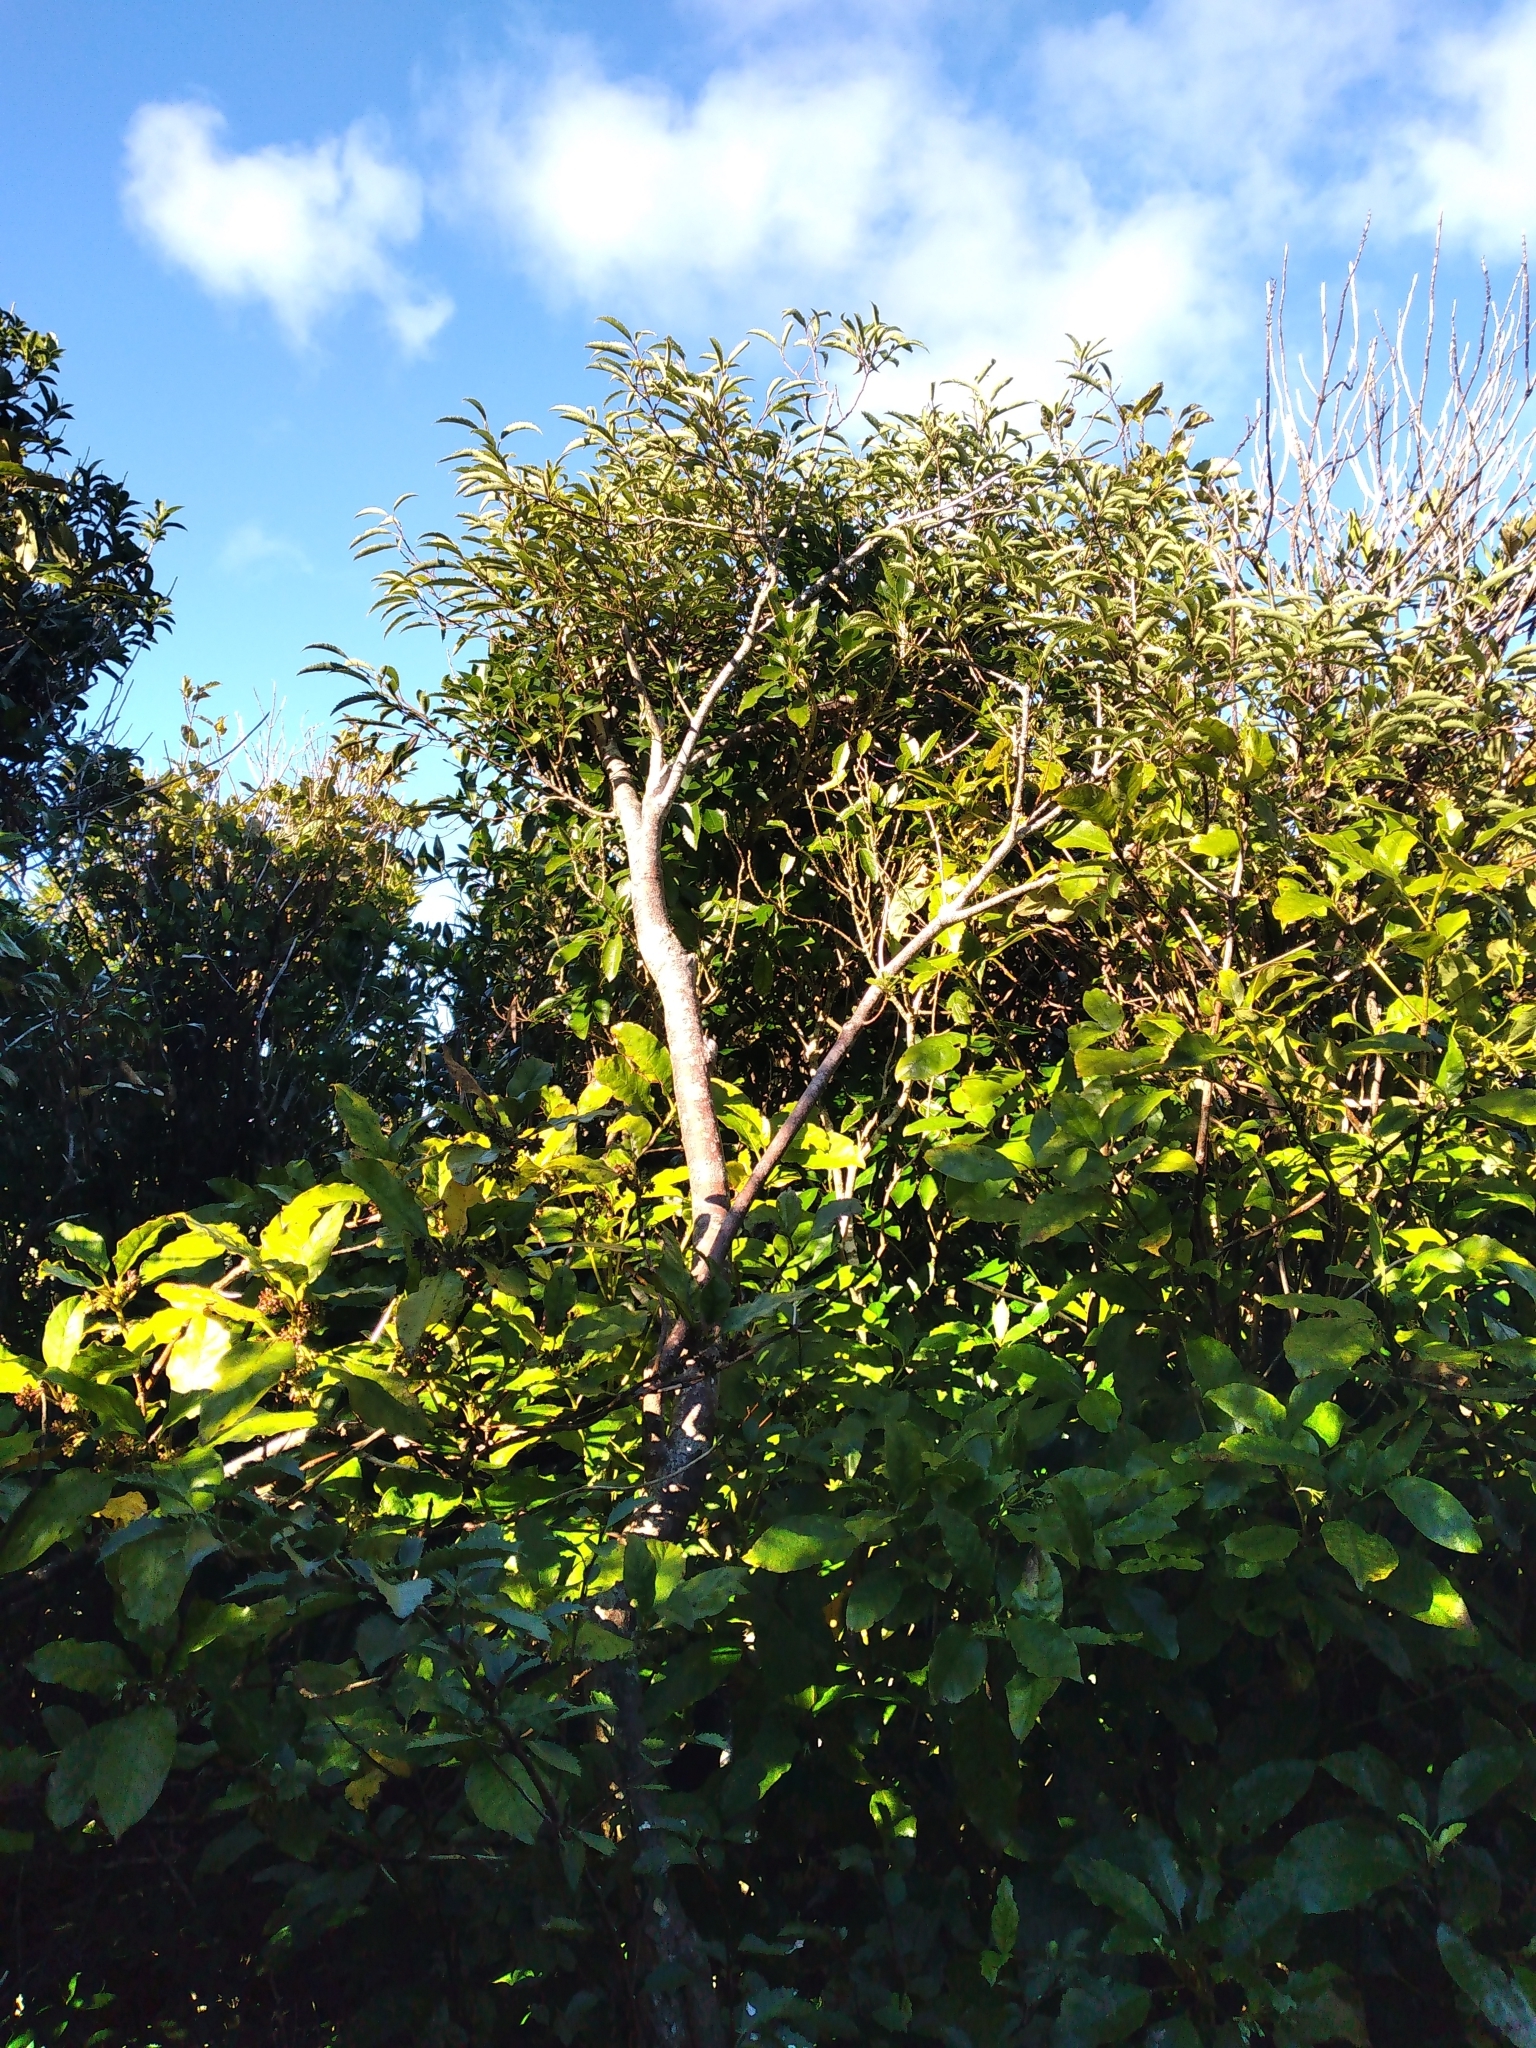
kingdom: Plantae
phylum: Tracheophyta
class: Magnoliopsida
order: Malvales
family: Malvaceae
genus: Hoheria
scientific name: Hoheria sexstylosa
